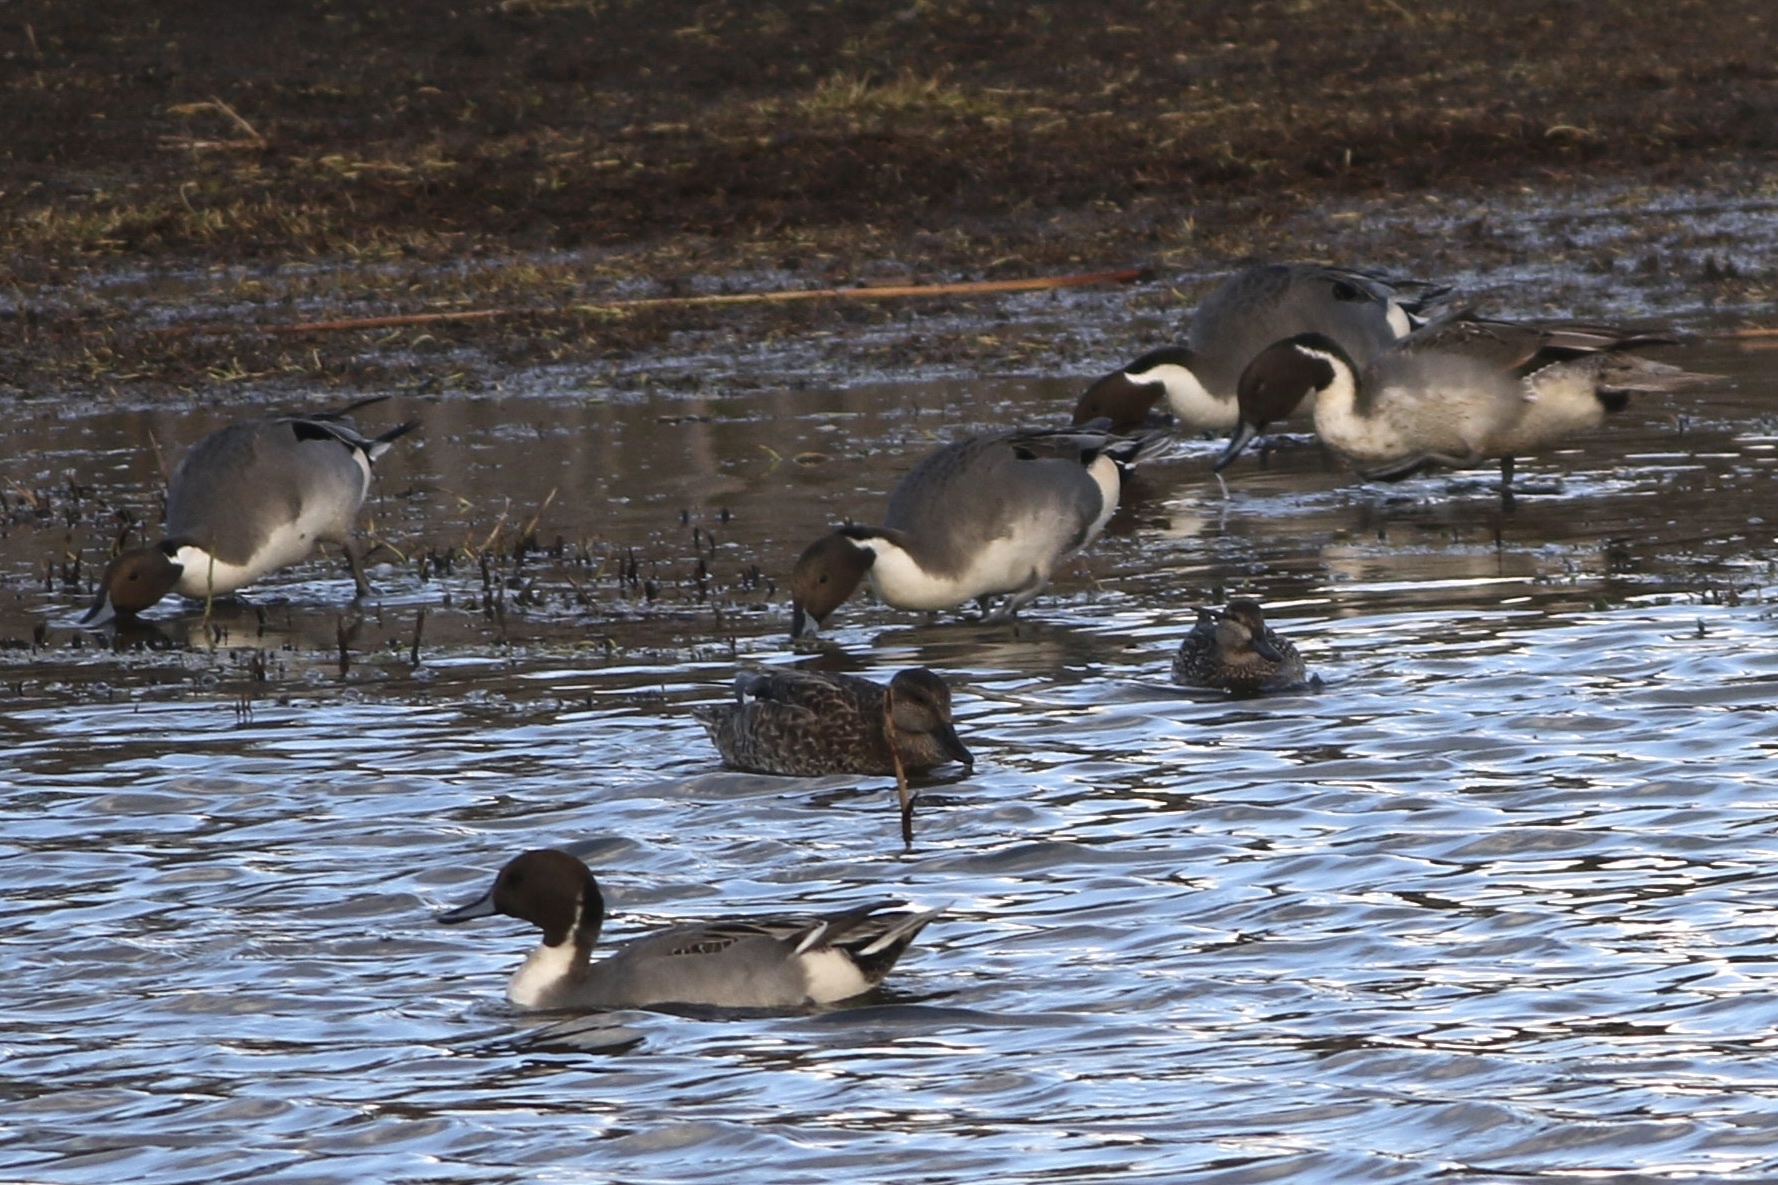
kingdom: Animalia
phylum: Chordata
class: Aves
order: Anseriformes
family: Anatidae
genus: Anas
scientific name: Anas acuta
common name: Northern pintail
